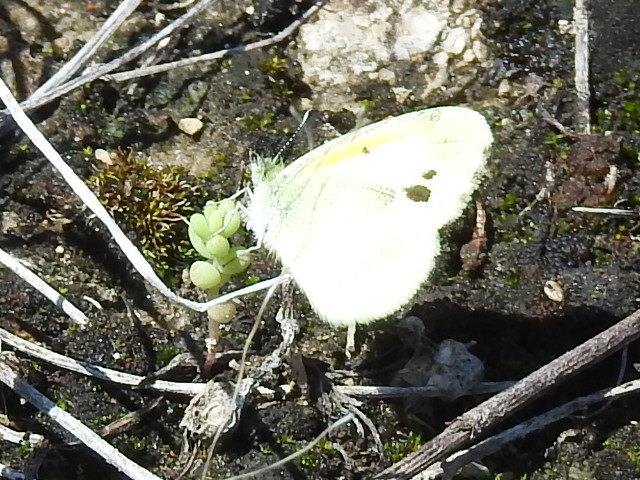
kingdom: Animalia
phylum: Arthropoda
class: Insecta
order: Lepidoptera
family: Pieridae
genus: Nathalis
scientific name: Nathalis iole
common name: Dainty sulphur
